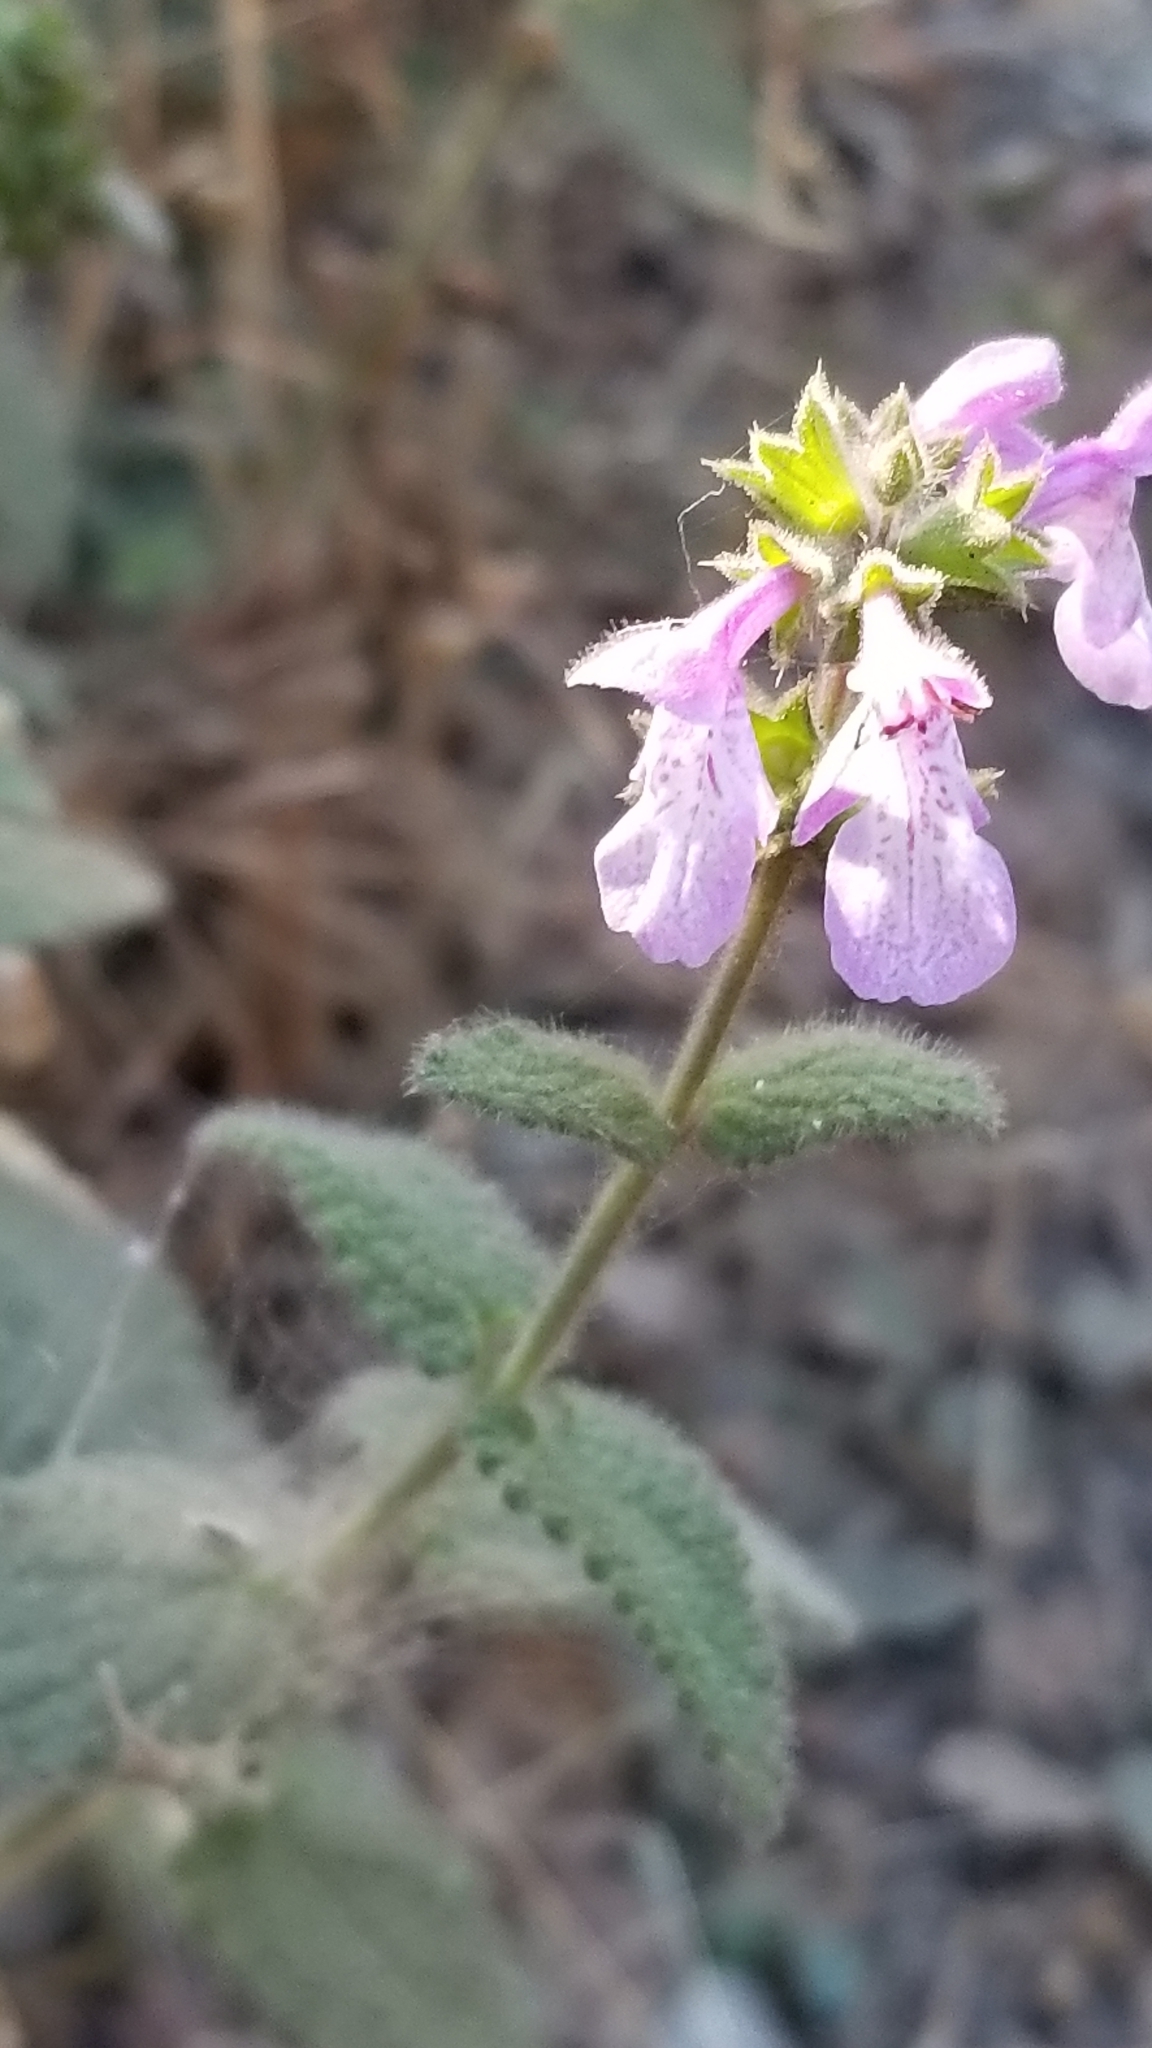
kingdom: Plantae
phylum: Tracheophyta
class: Magnoliopsida
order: Lamiales
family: Lamiaceae
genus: Stachys
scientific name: Stachys bullata
